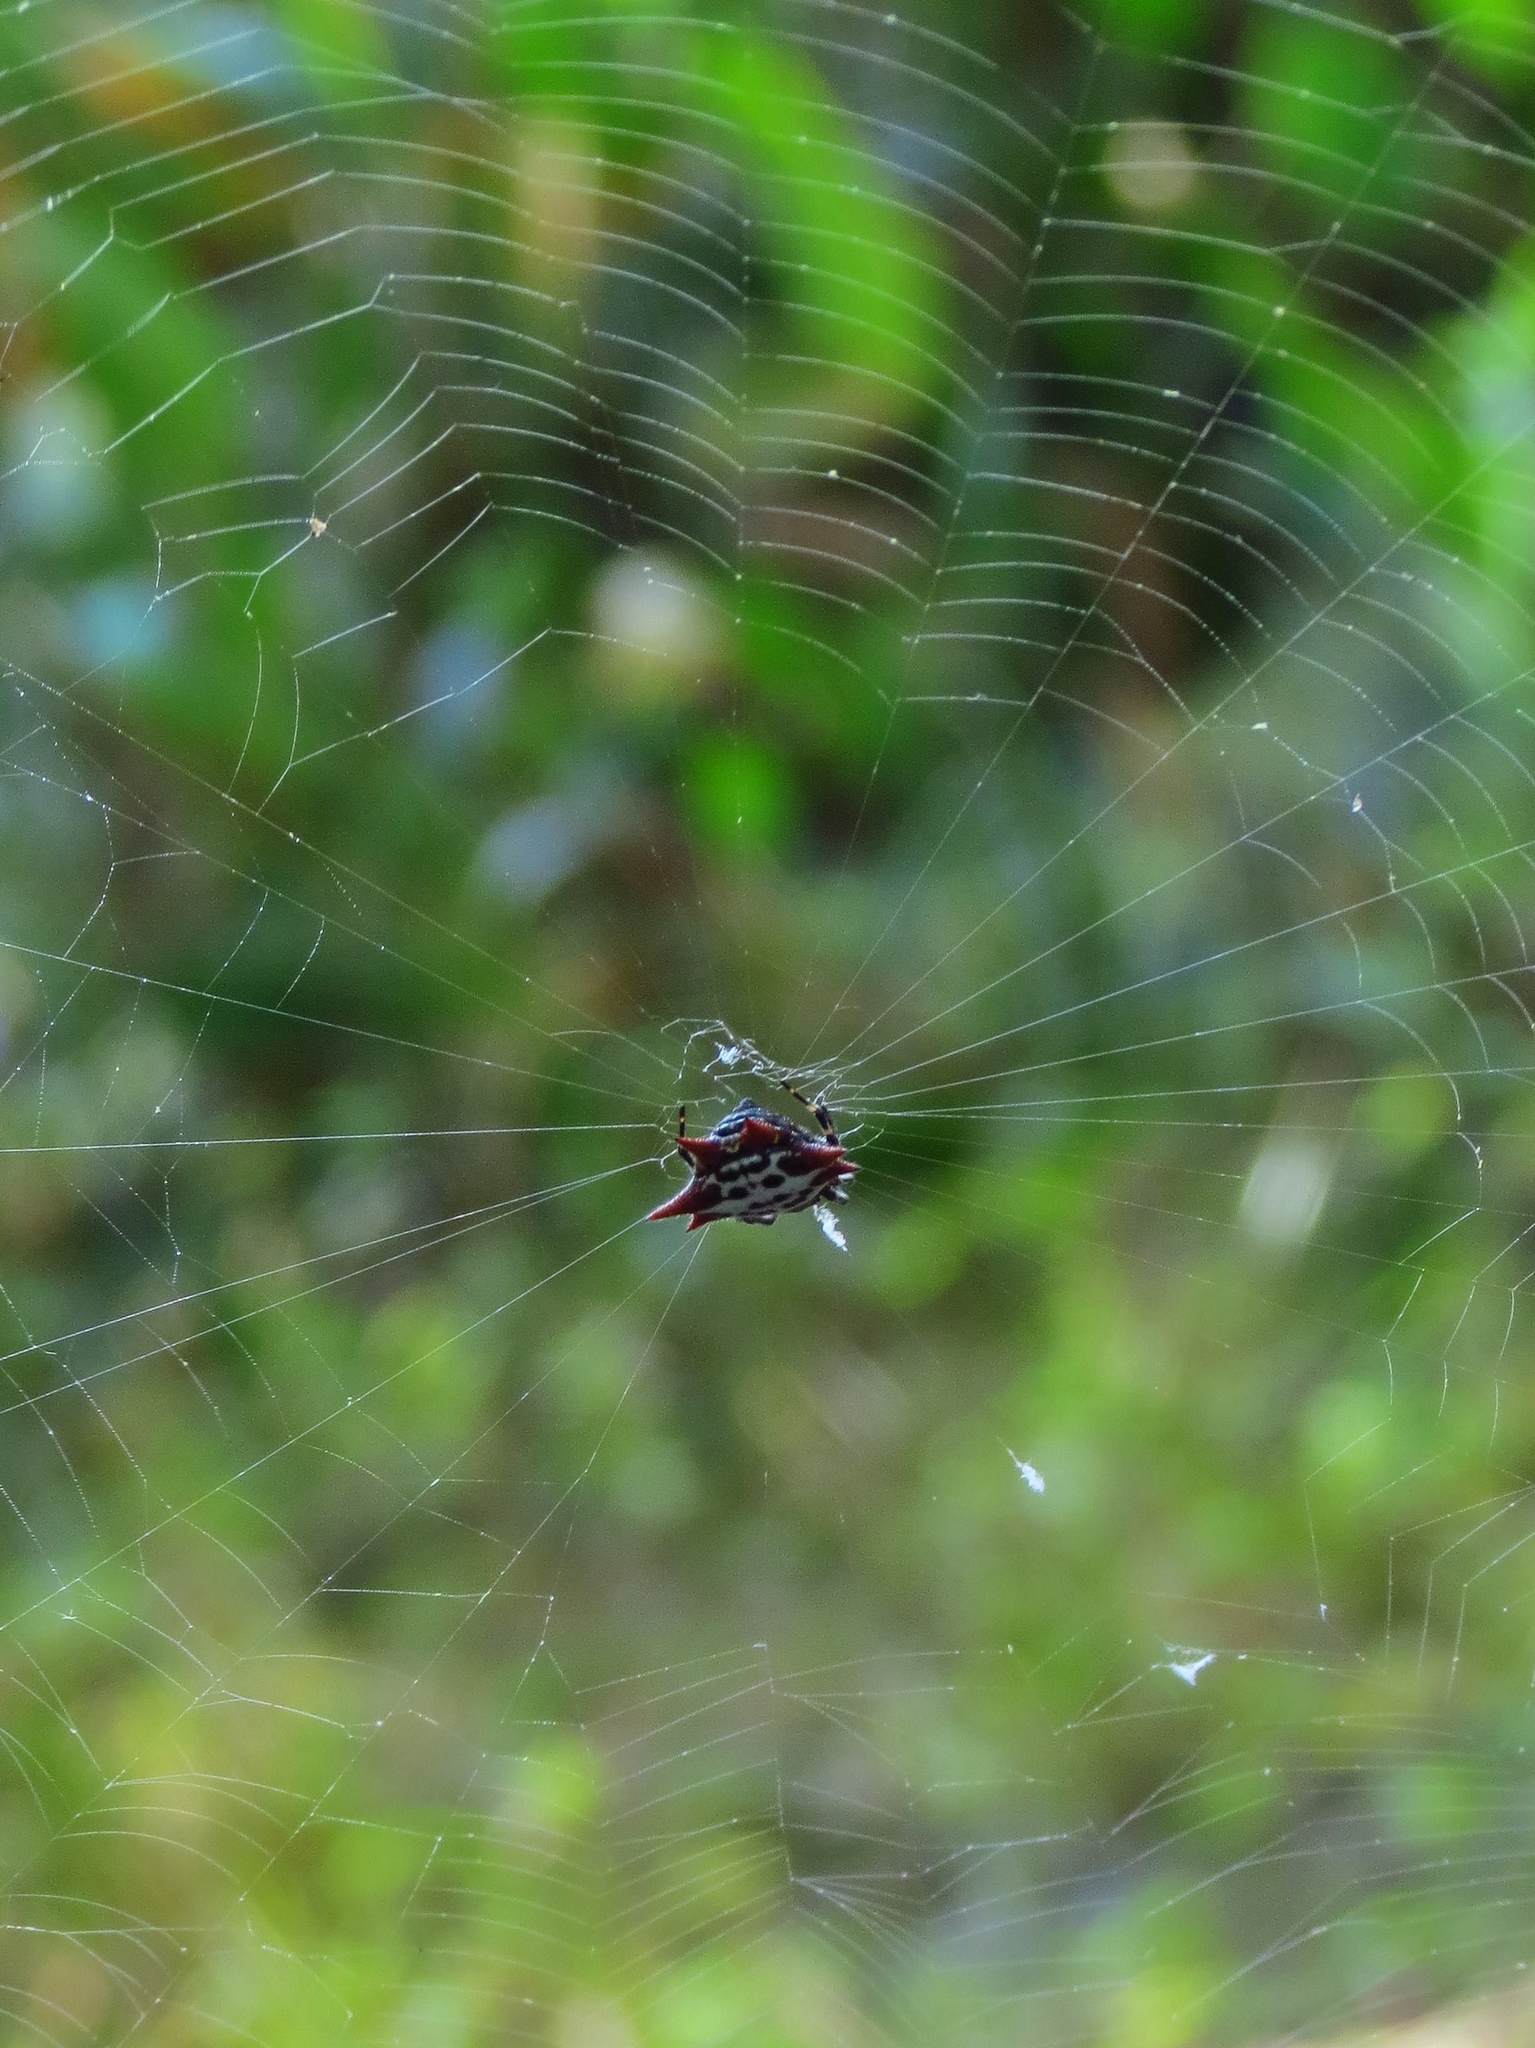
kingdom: Animalia
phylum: Arthropoda
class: Arachnida
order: Araneae
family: Araneidae
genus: Gasteracantha
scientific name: Gasteracantha cancriformis
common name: Orb weavers
